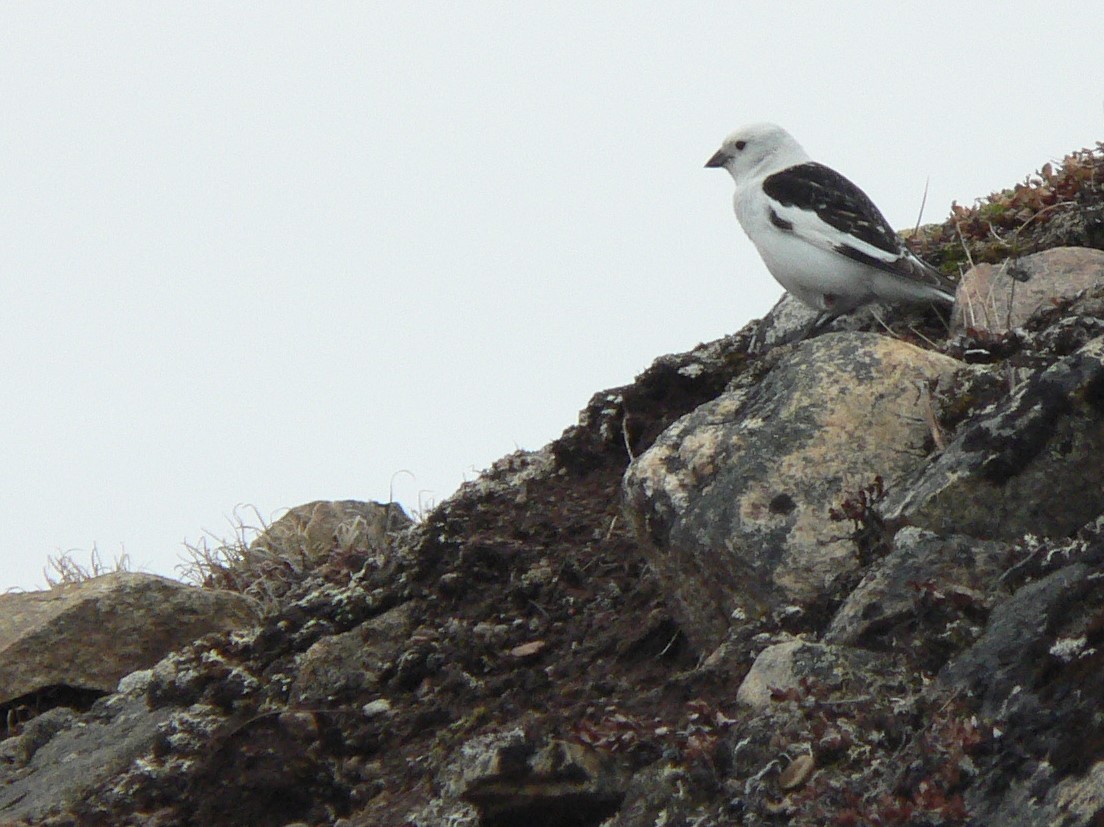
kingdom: Animalia
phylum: Chordata
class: Aves
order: Passeriformes
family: Calcariidae
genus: Plectrophenax
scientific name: Plectrophenax nivalis
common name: Snow bunting
